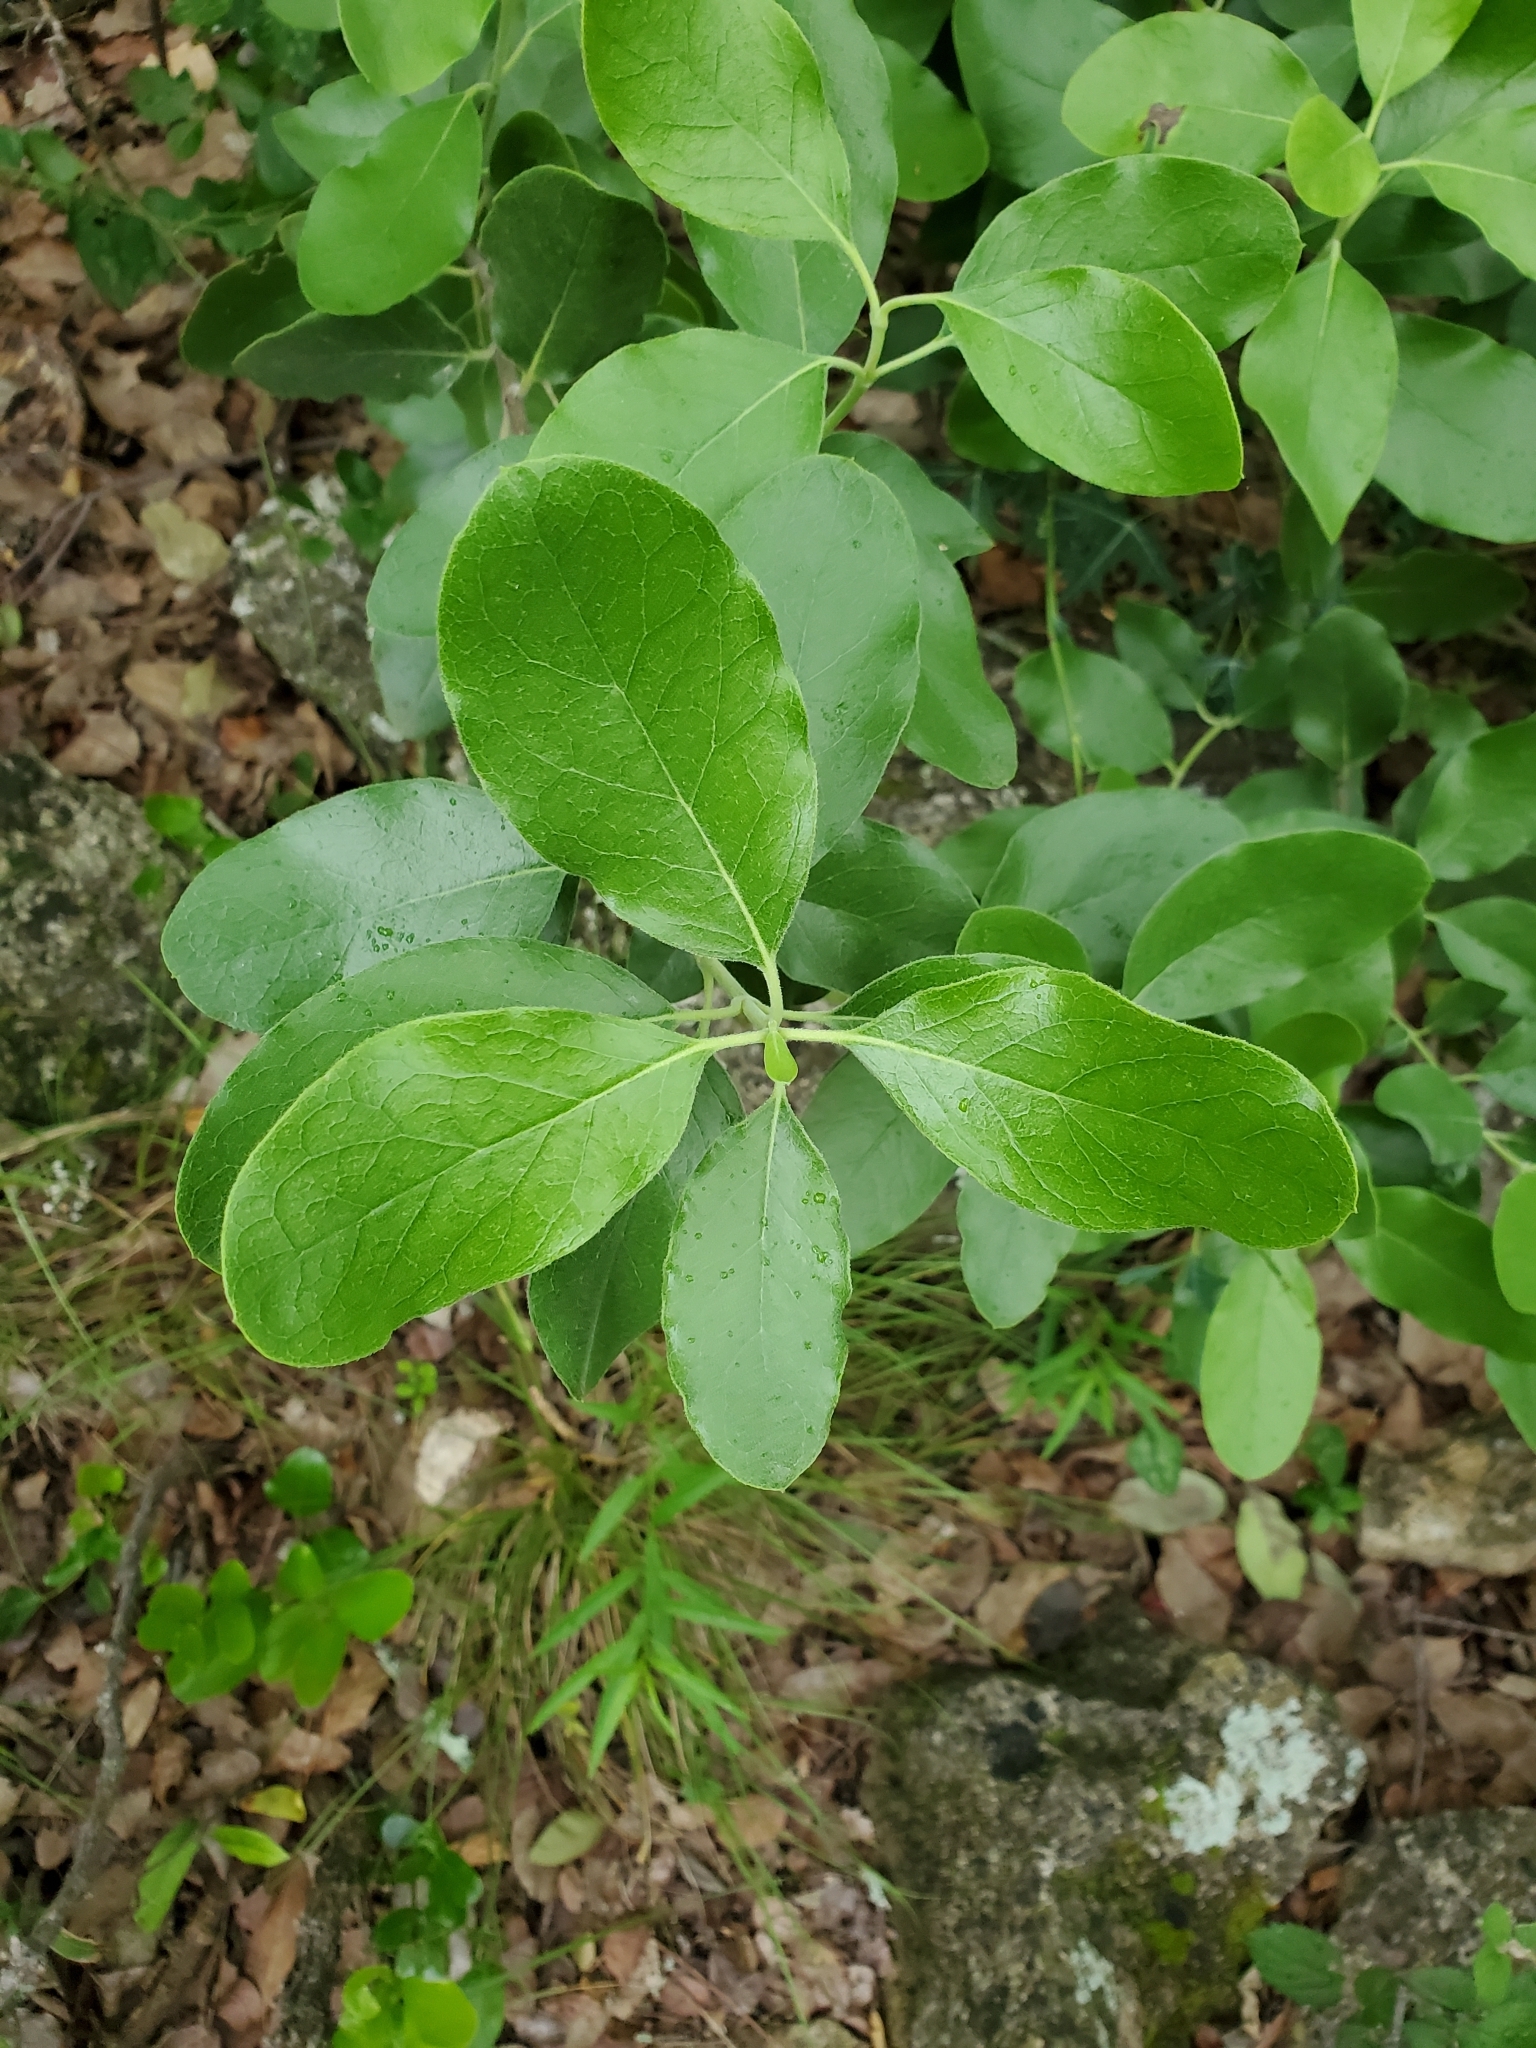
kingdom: Plantae
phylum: Tracheophyta
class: Magnoliopsida
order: Garryales
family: Garryaceae
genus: Garrya
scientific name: Garrya lindheimeri
